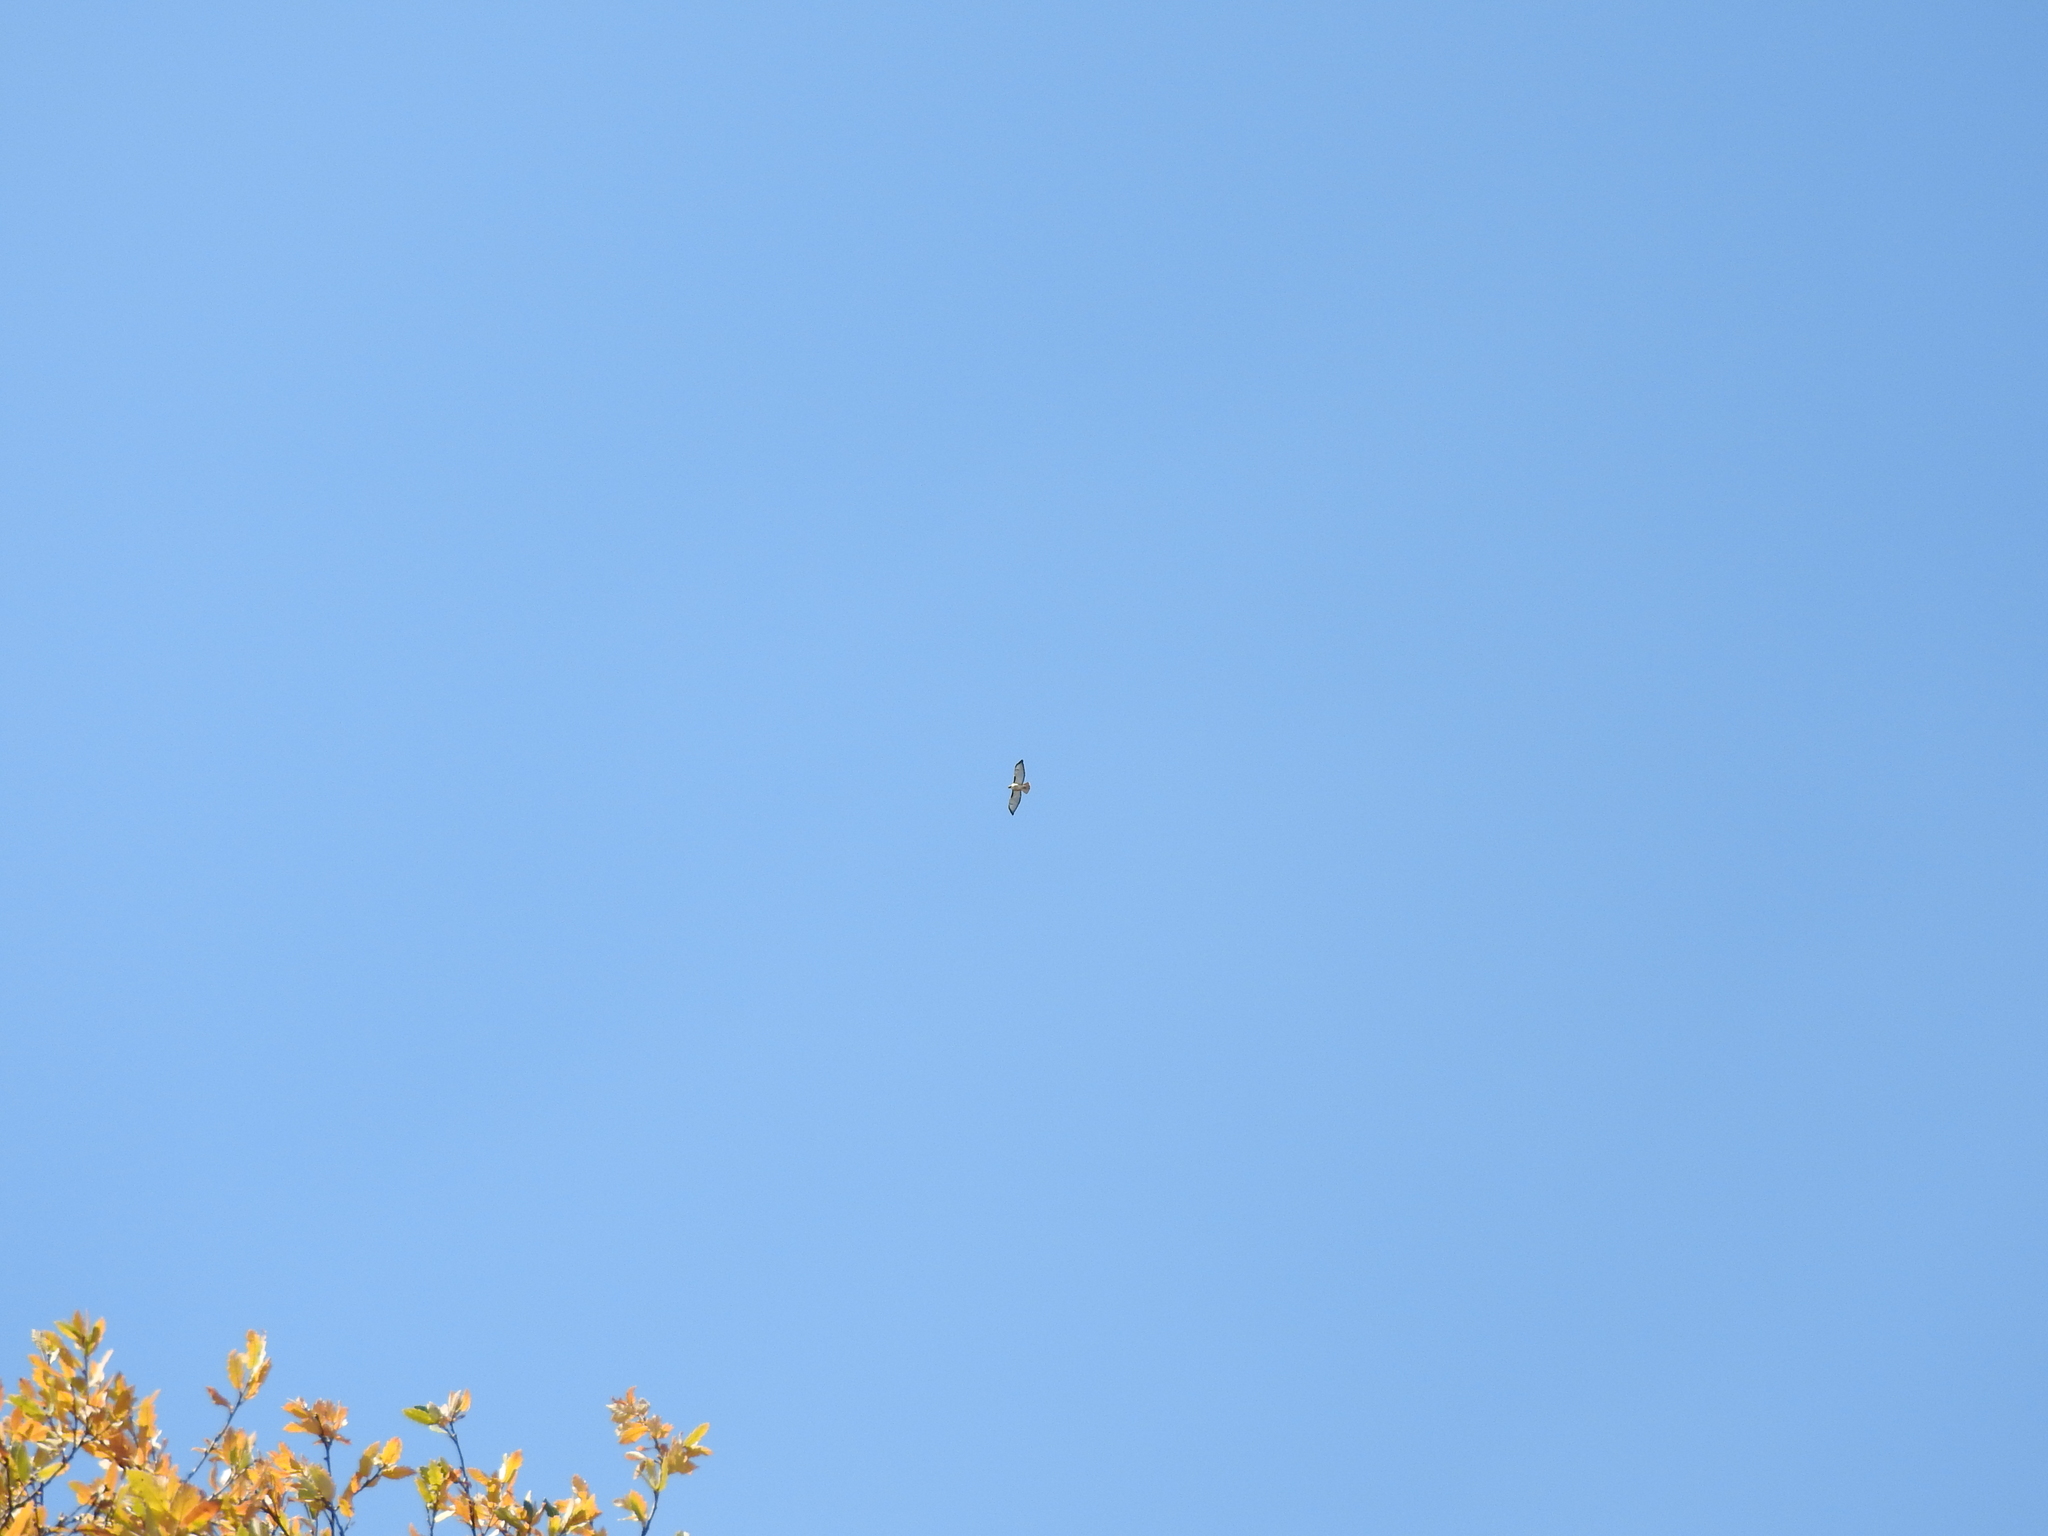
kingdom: Animalia
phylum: Chordata
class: Aves
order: Accipitriformes
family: Accipitridae
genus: Buteo
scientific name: Buteo jamaicensis
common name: Red-tailed hawk
